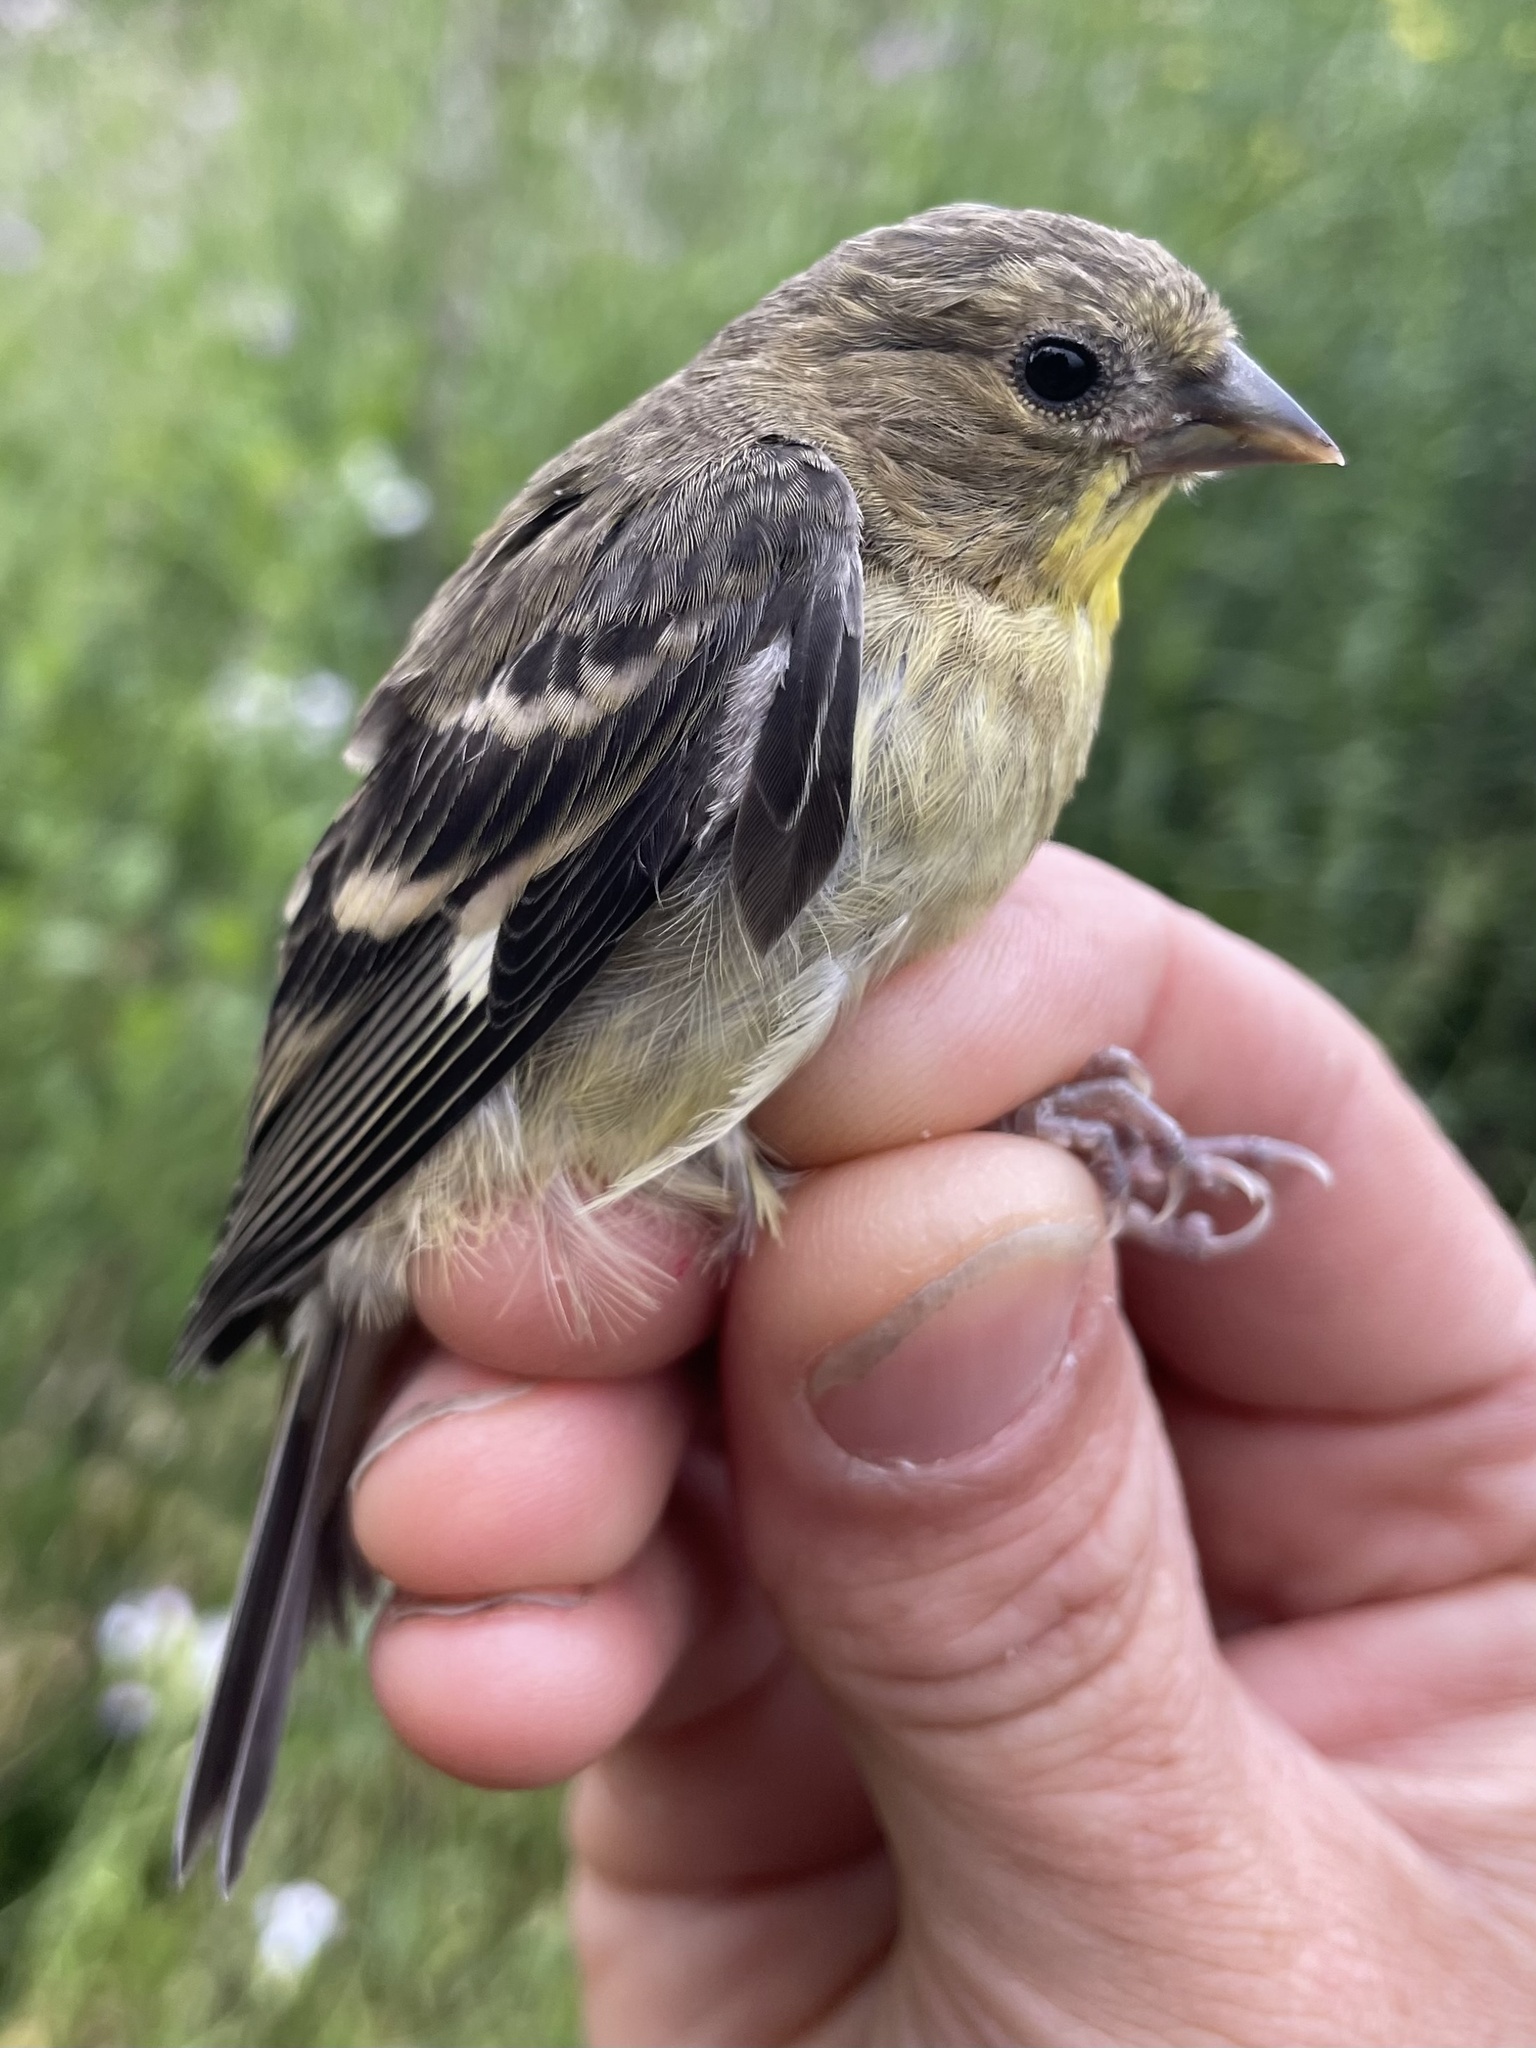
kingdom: Animalia
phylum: Chordata
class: Aves
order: Passeriformes
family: Fringillidae
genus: Spinus
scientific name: Spinus psaltria
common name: Lesser goldfinch
